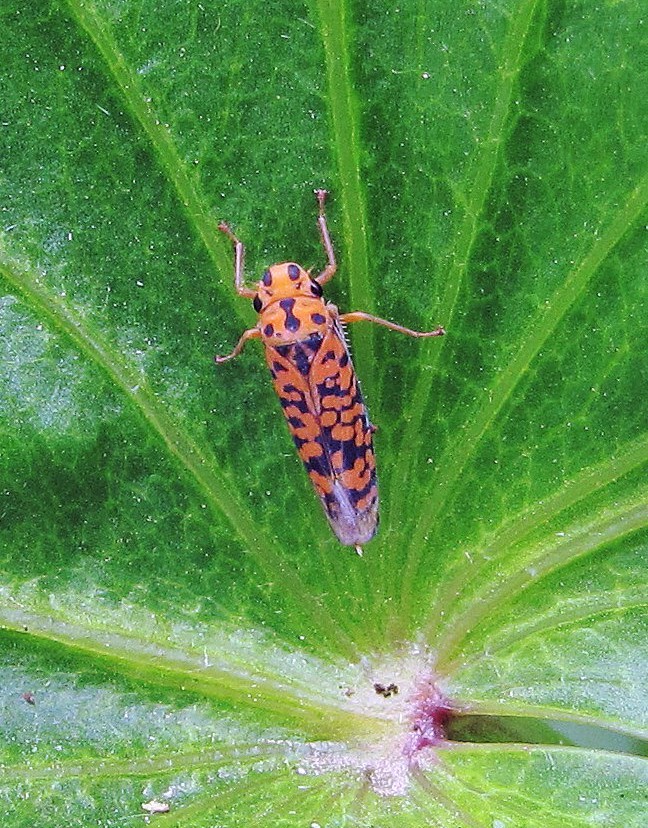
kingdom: Animalia
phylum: Arthropoda
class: Insecta
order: Hemiptera
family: Cicadellidae
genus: Pawiloma
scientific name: Pawiloma victima
